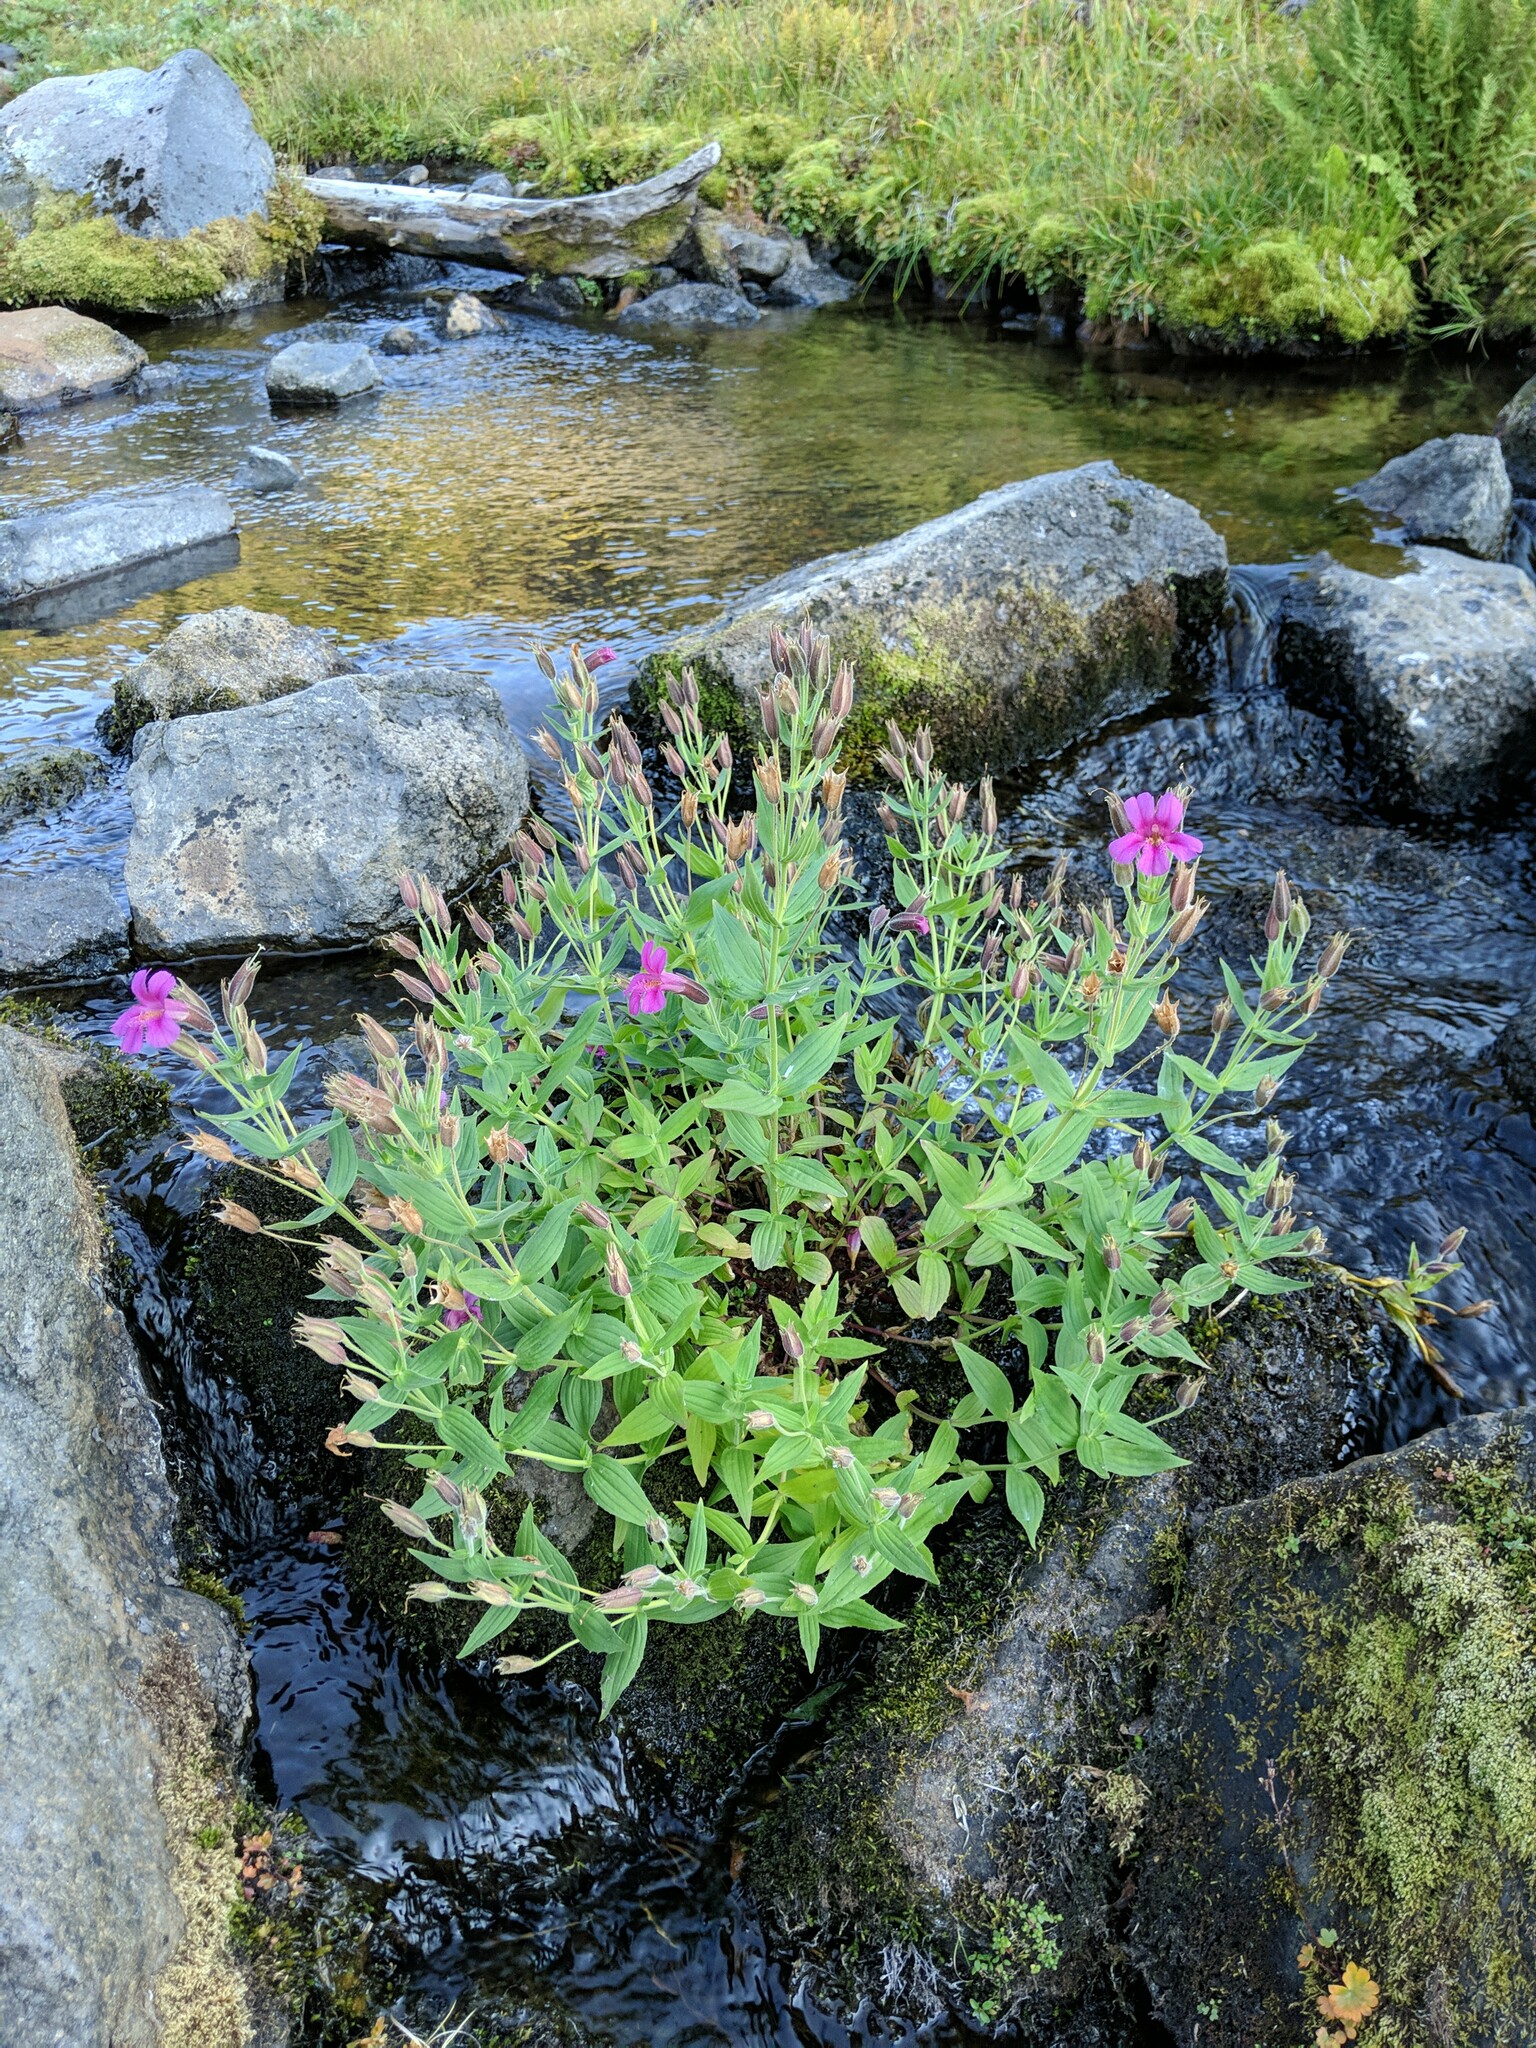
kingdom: Plantae
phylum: Tracheophyta
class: Magnoliopsida
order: Lamiales
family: Phrymaceae
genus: Erythranthe
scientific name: Erythranthe lewisii
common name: Lewis's monkey-flower
